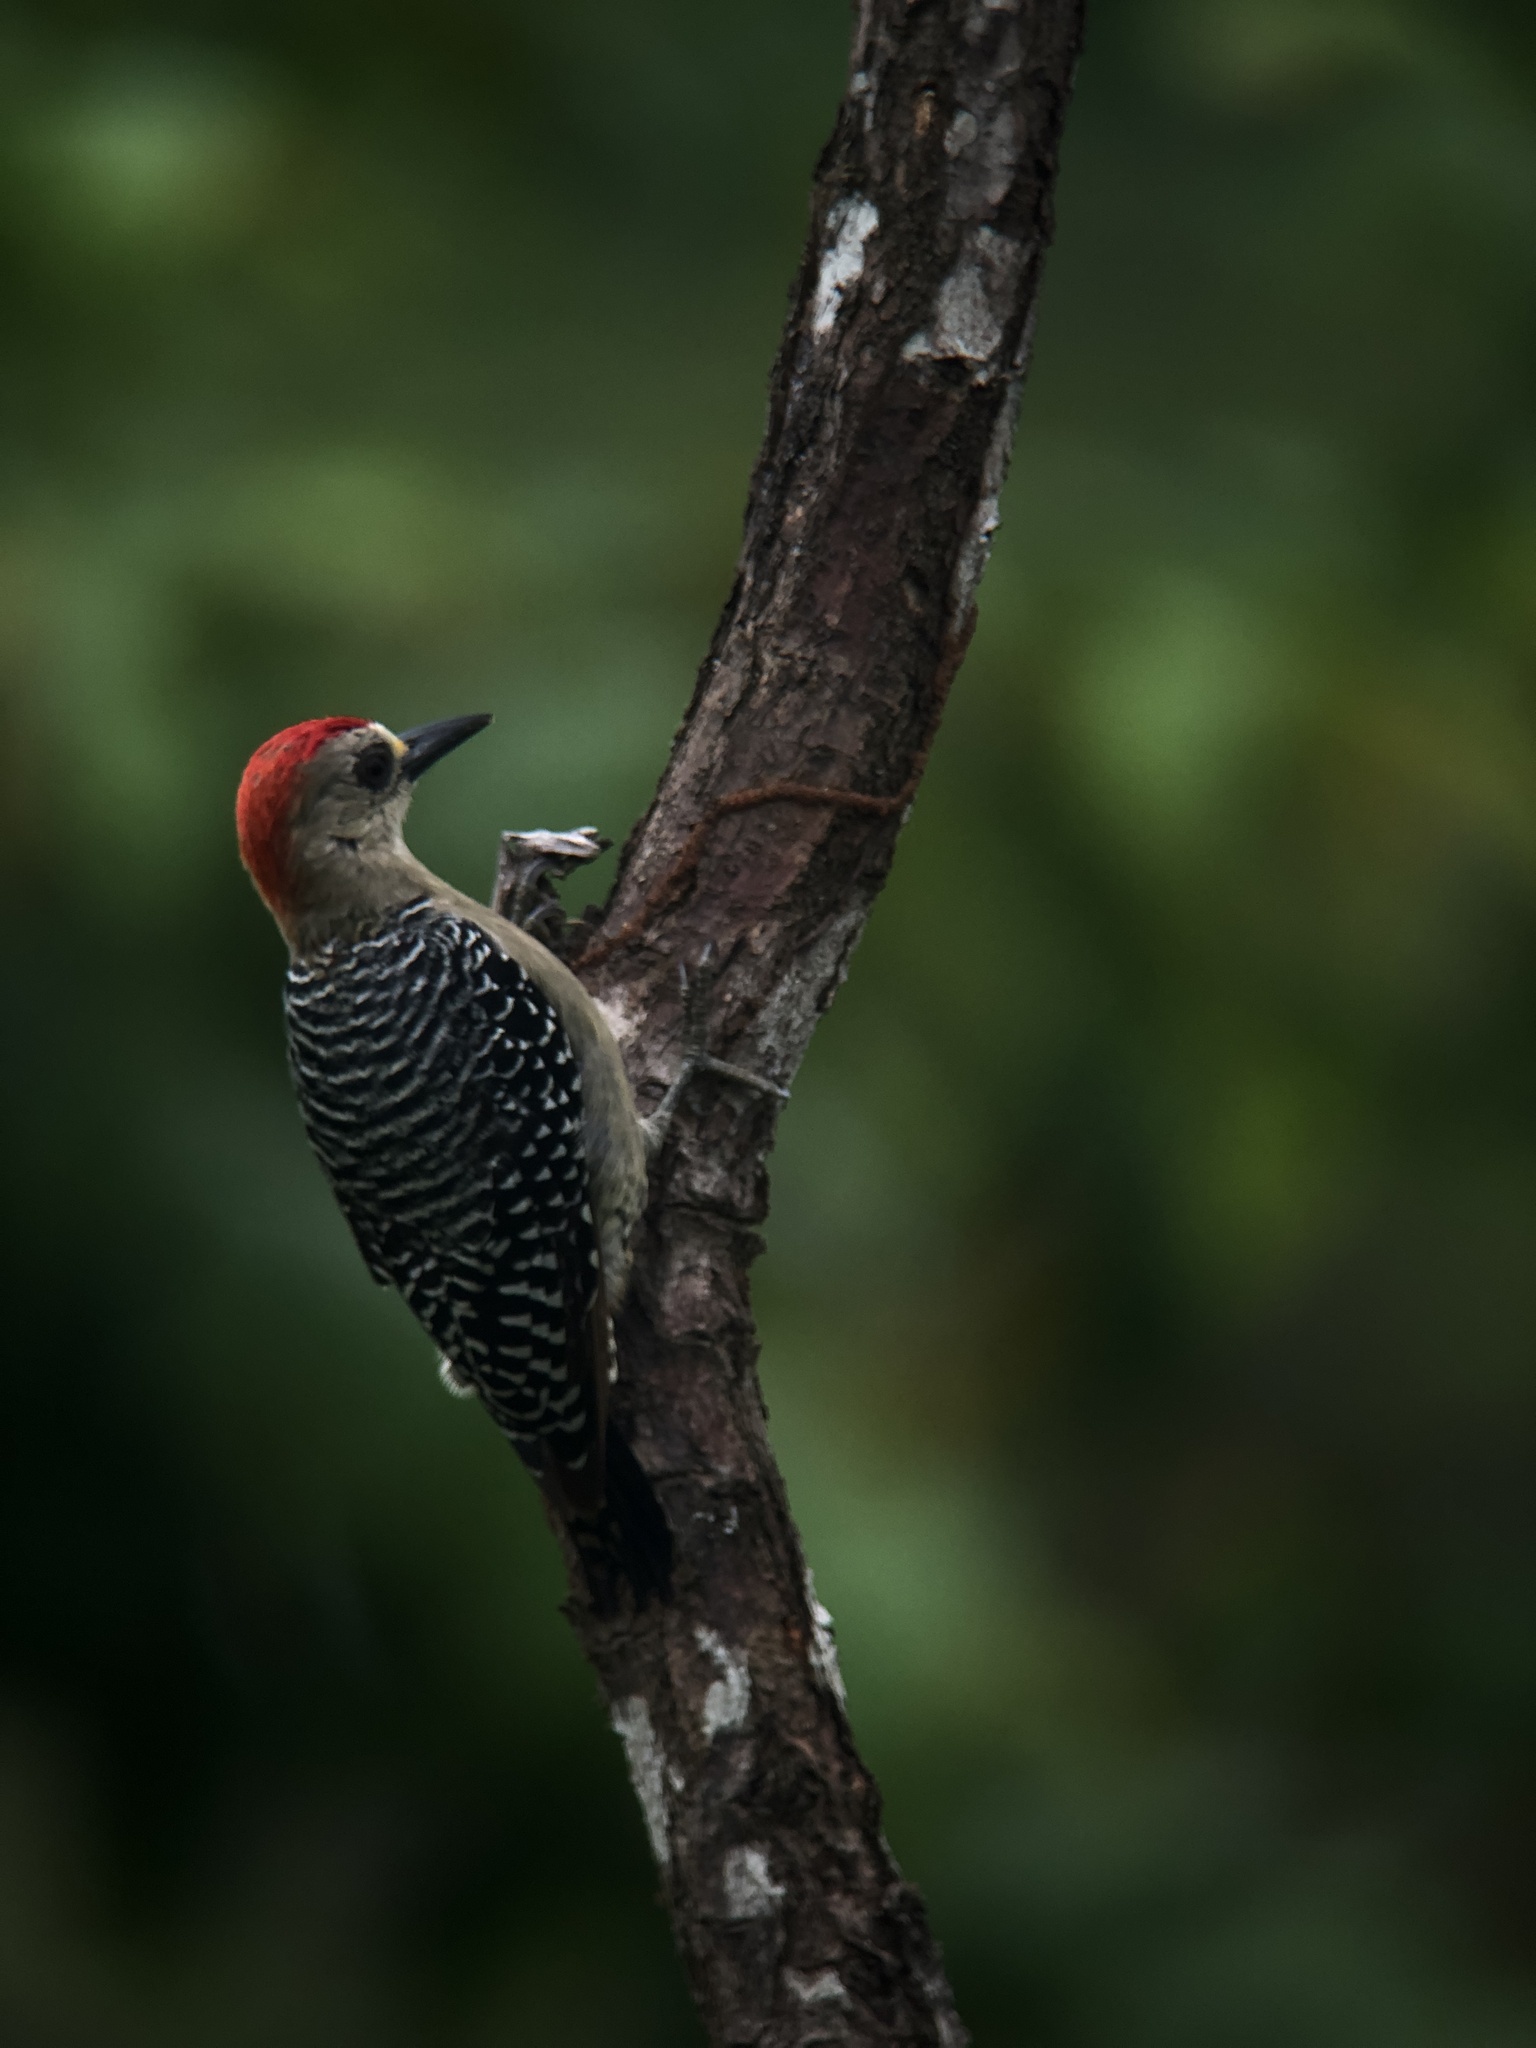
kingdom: Animalia
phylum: Chordata
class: Aves
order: Piciformes
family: Picidae
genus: Melanerpes
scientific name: Melanerpes rubricapillus
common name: Red-crowned woodpecker
